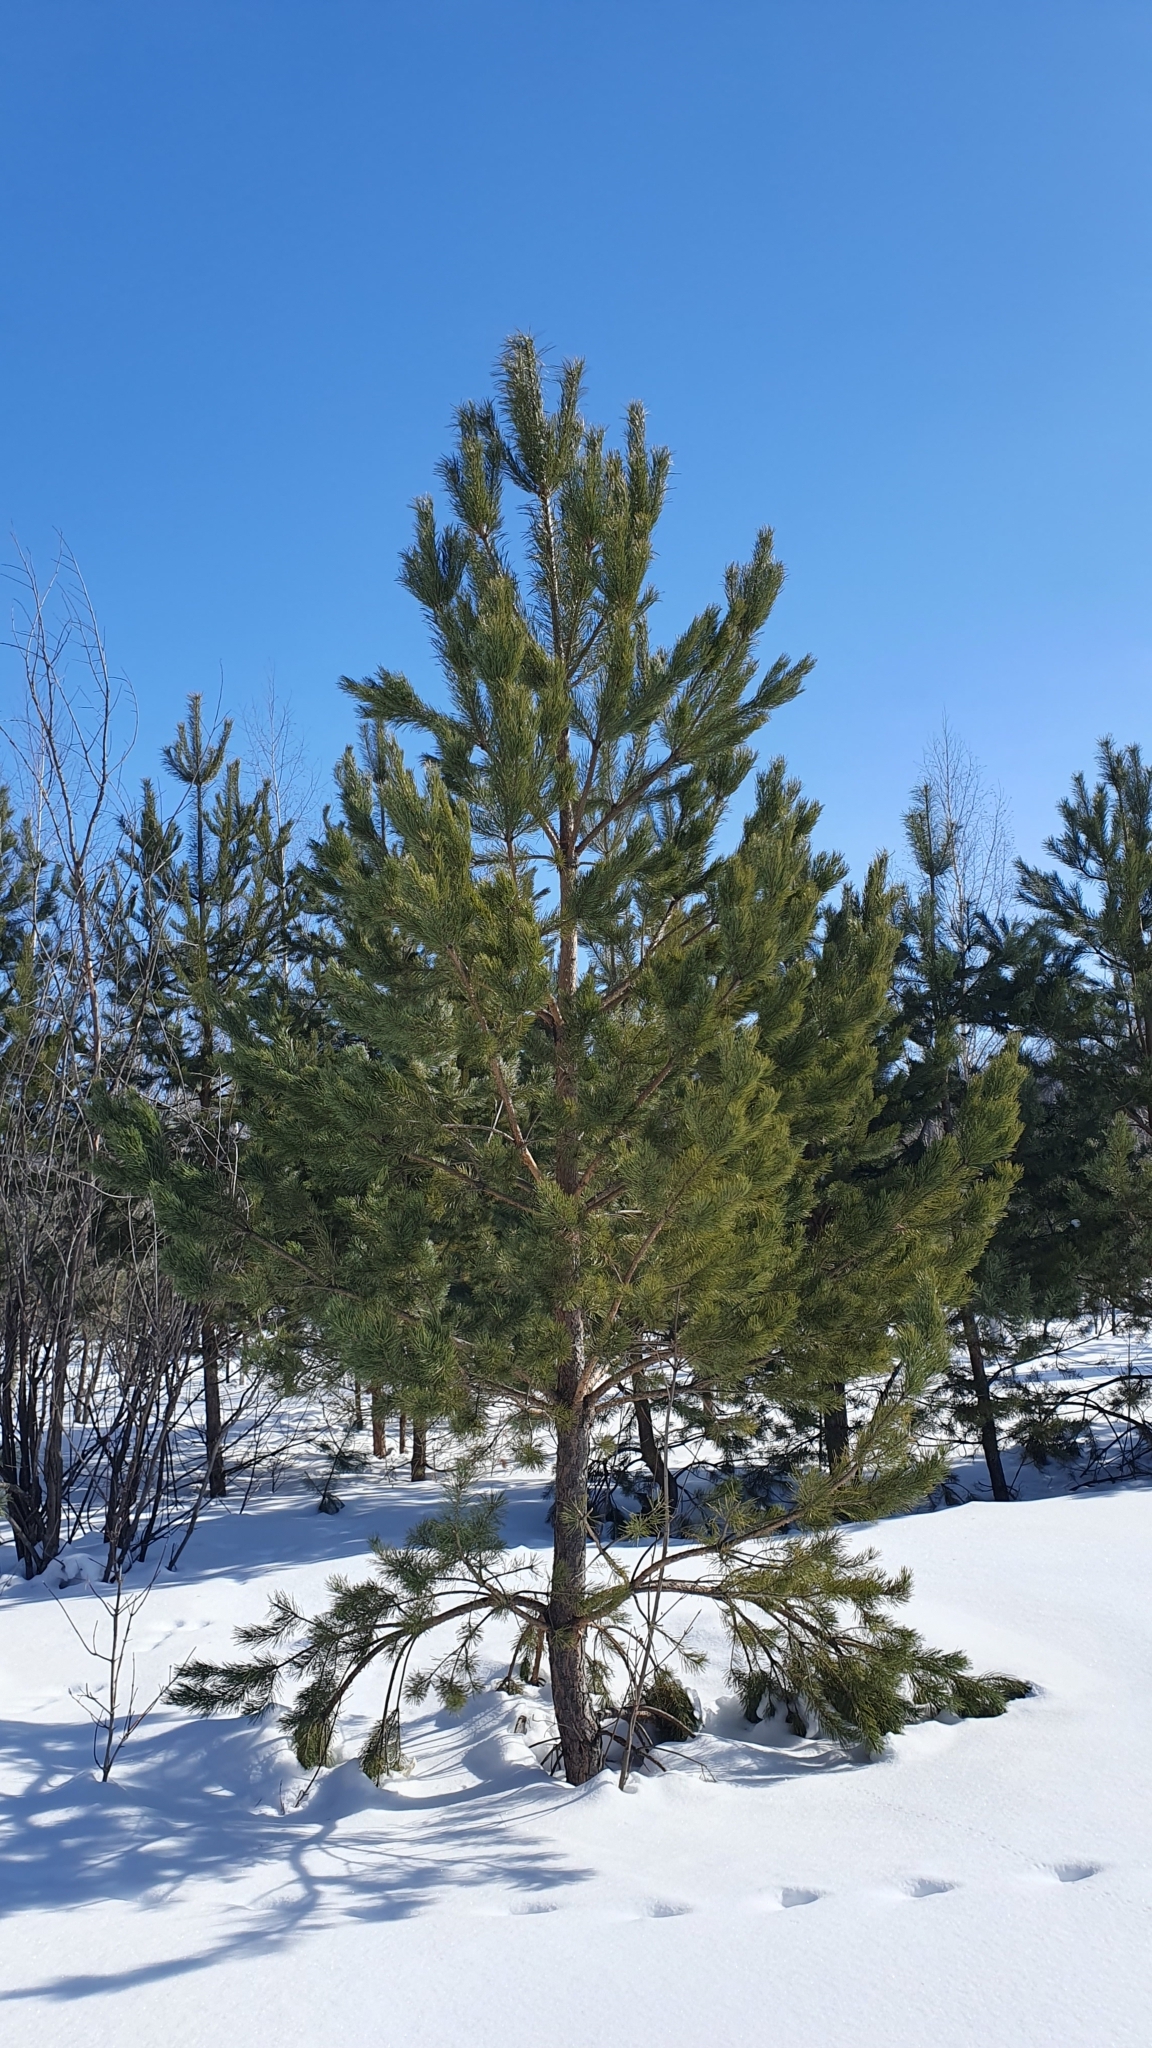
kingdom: Plantae
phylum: Tracheophyta
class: Pinopsida
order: Pinales
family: Pinaceae
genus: Pinus
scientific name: Pinus sylvestris
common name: Scots pine
